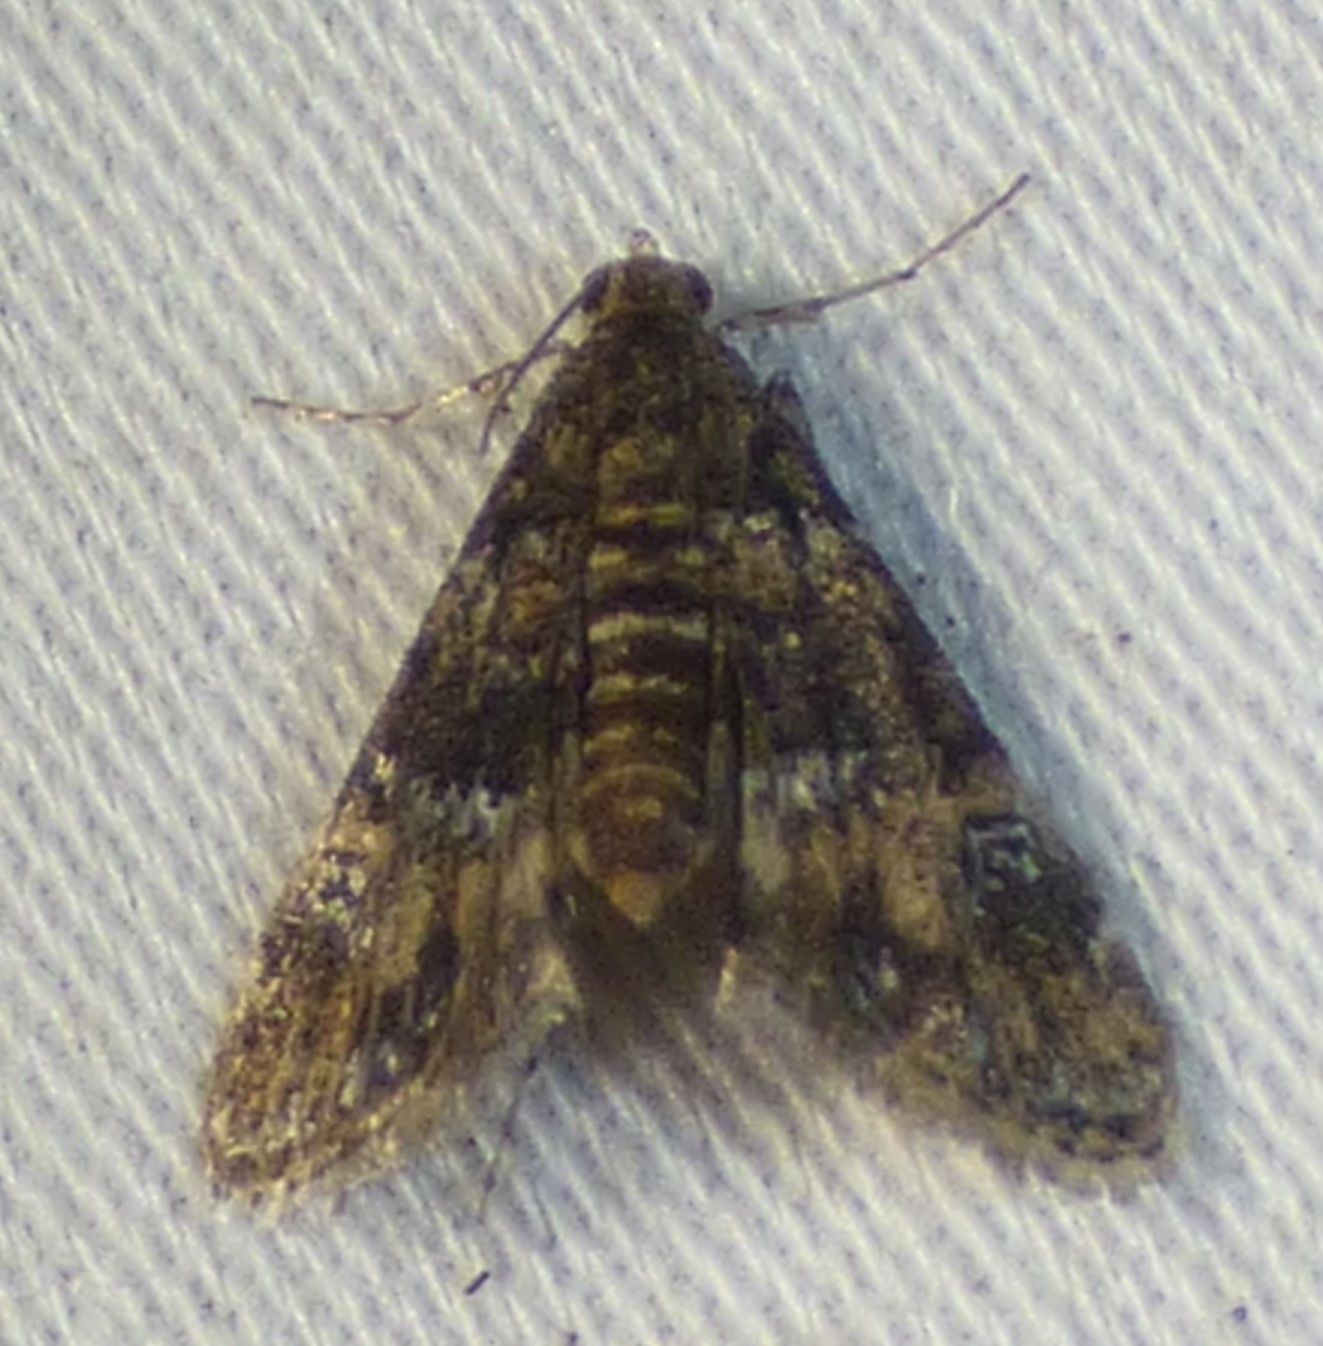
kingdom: Animalia
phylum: Arthropoda
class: Insecta
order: Lepidoptera
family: Crambidae
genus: Elophila
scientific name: Elophila obliteralis
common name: Waterlily leafcutter moth
